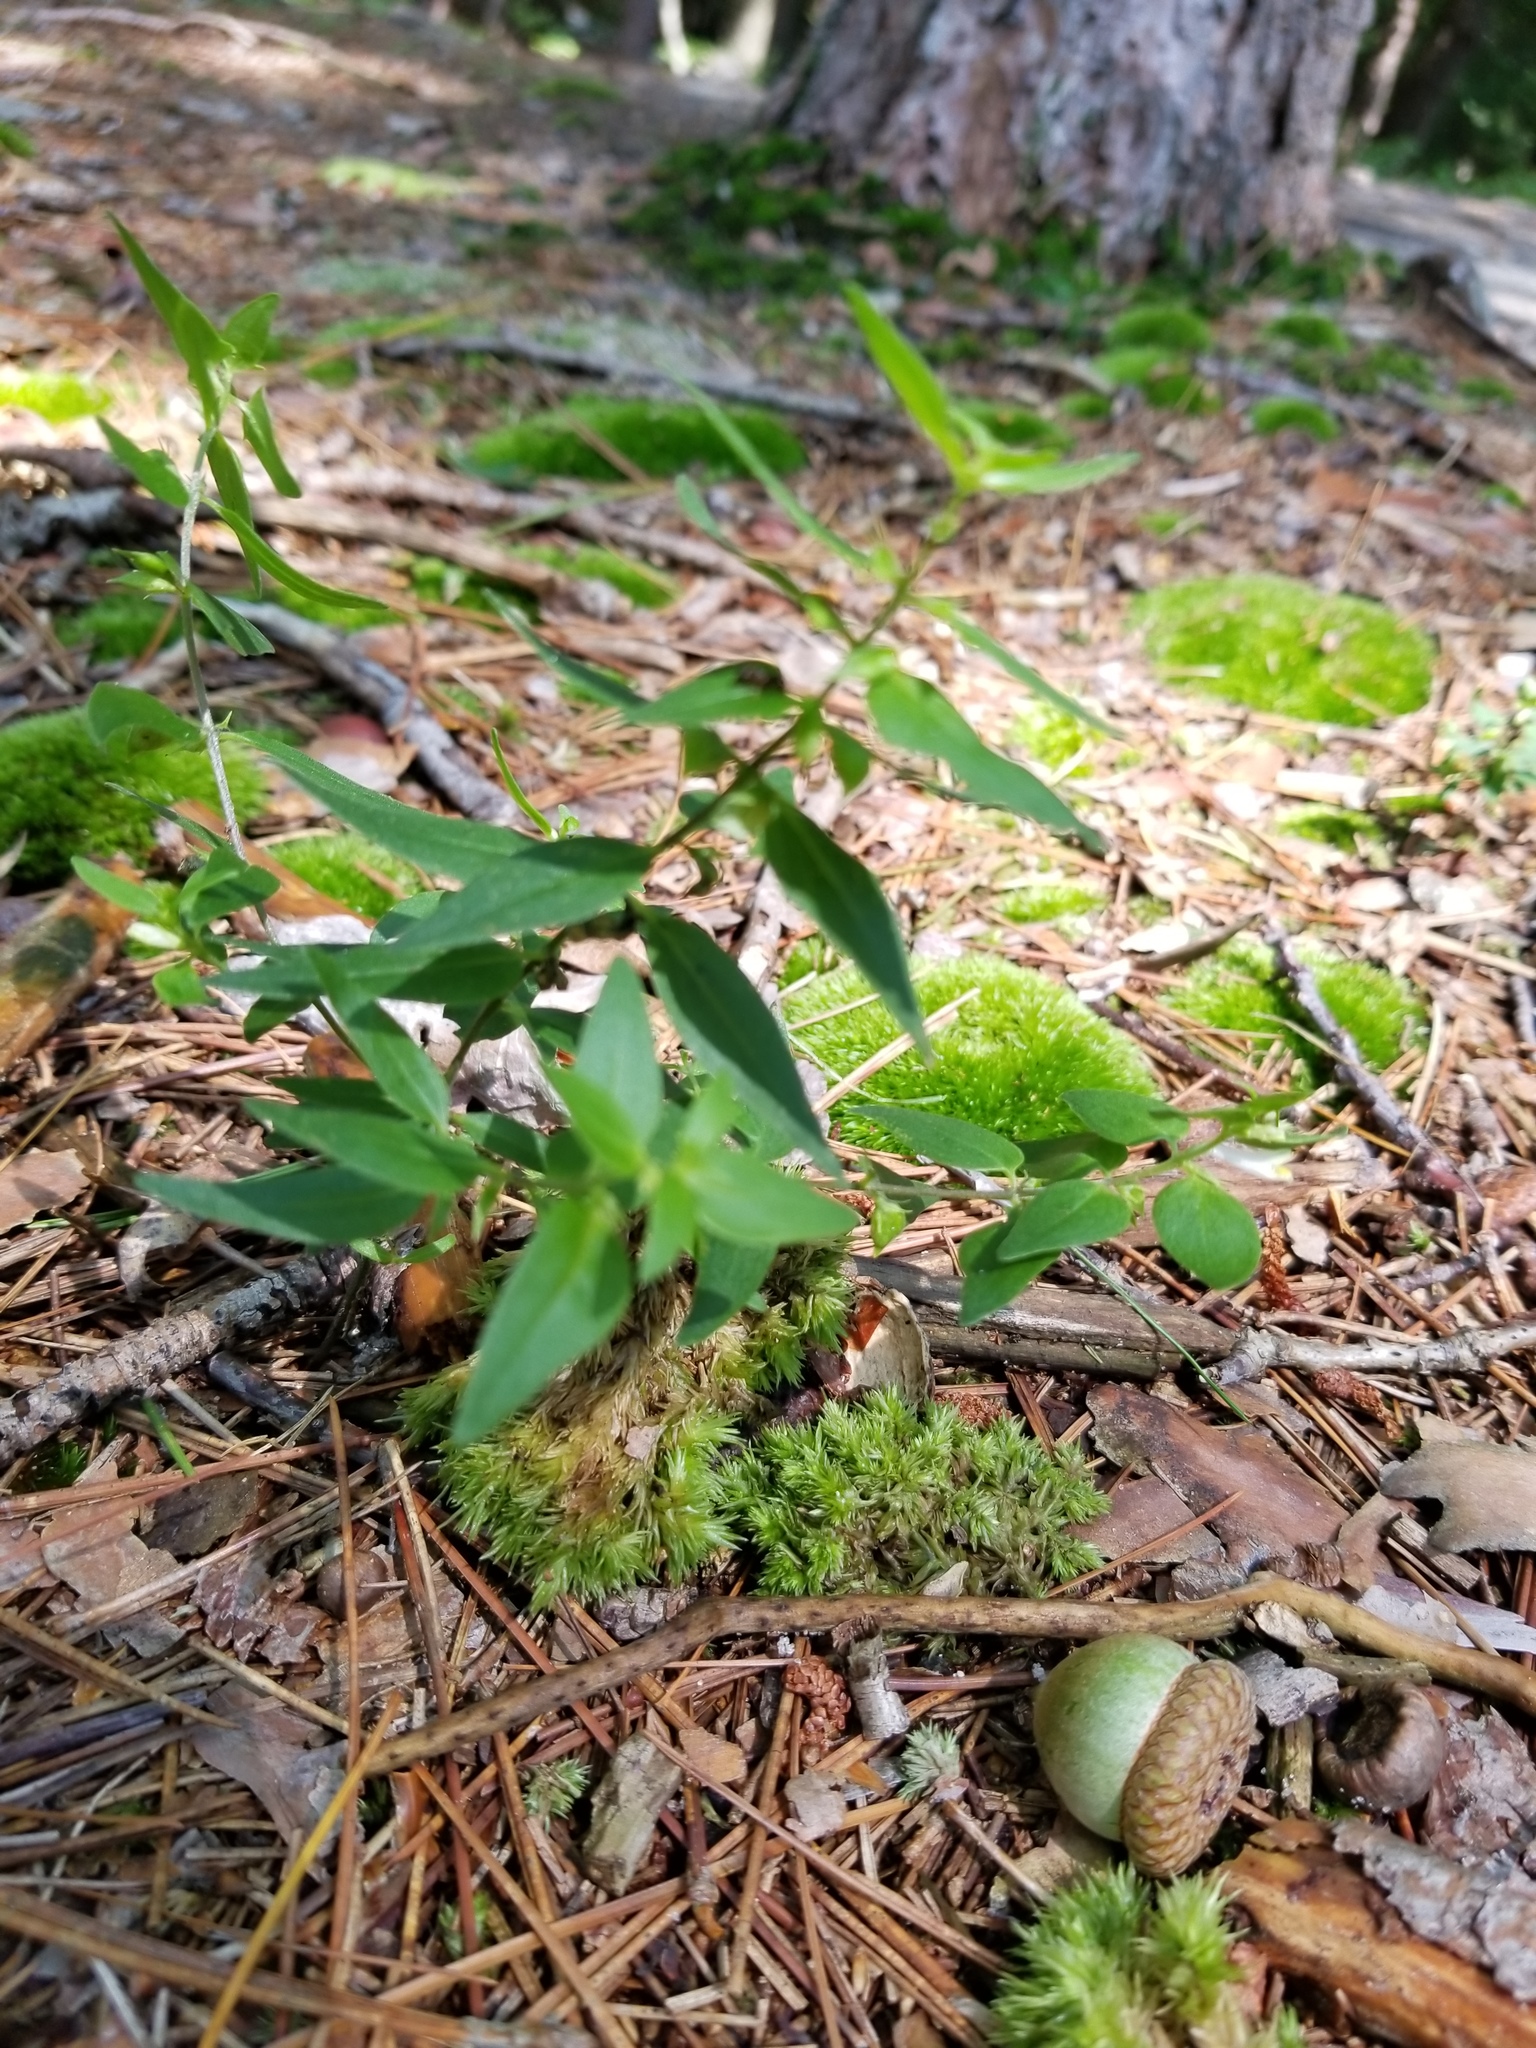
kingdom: Plantae
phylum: Tracheophyta
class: Magnoliopsida
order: Lamiales
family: Orobanchaceae
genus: Melampyrum
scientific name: Melampyrum lineare
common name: American cow-wheat
